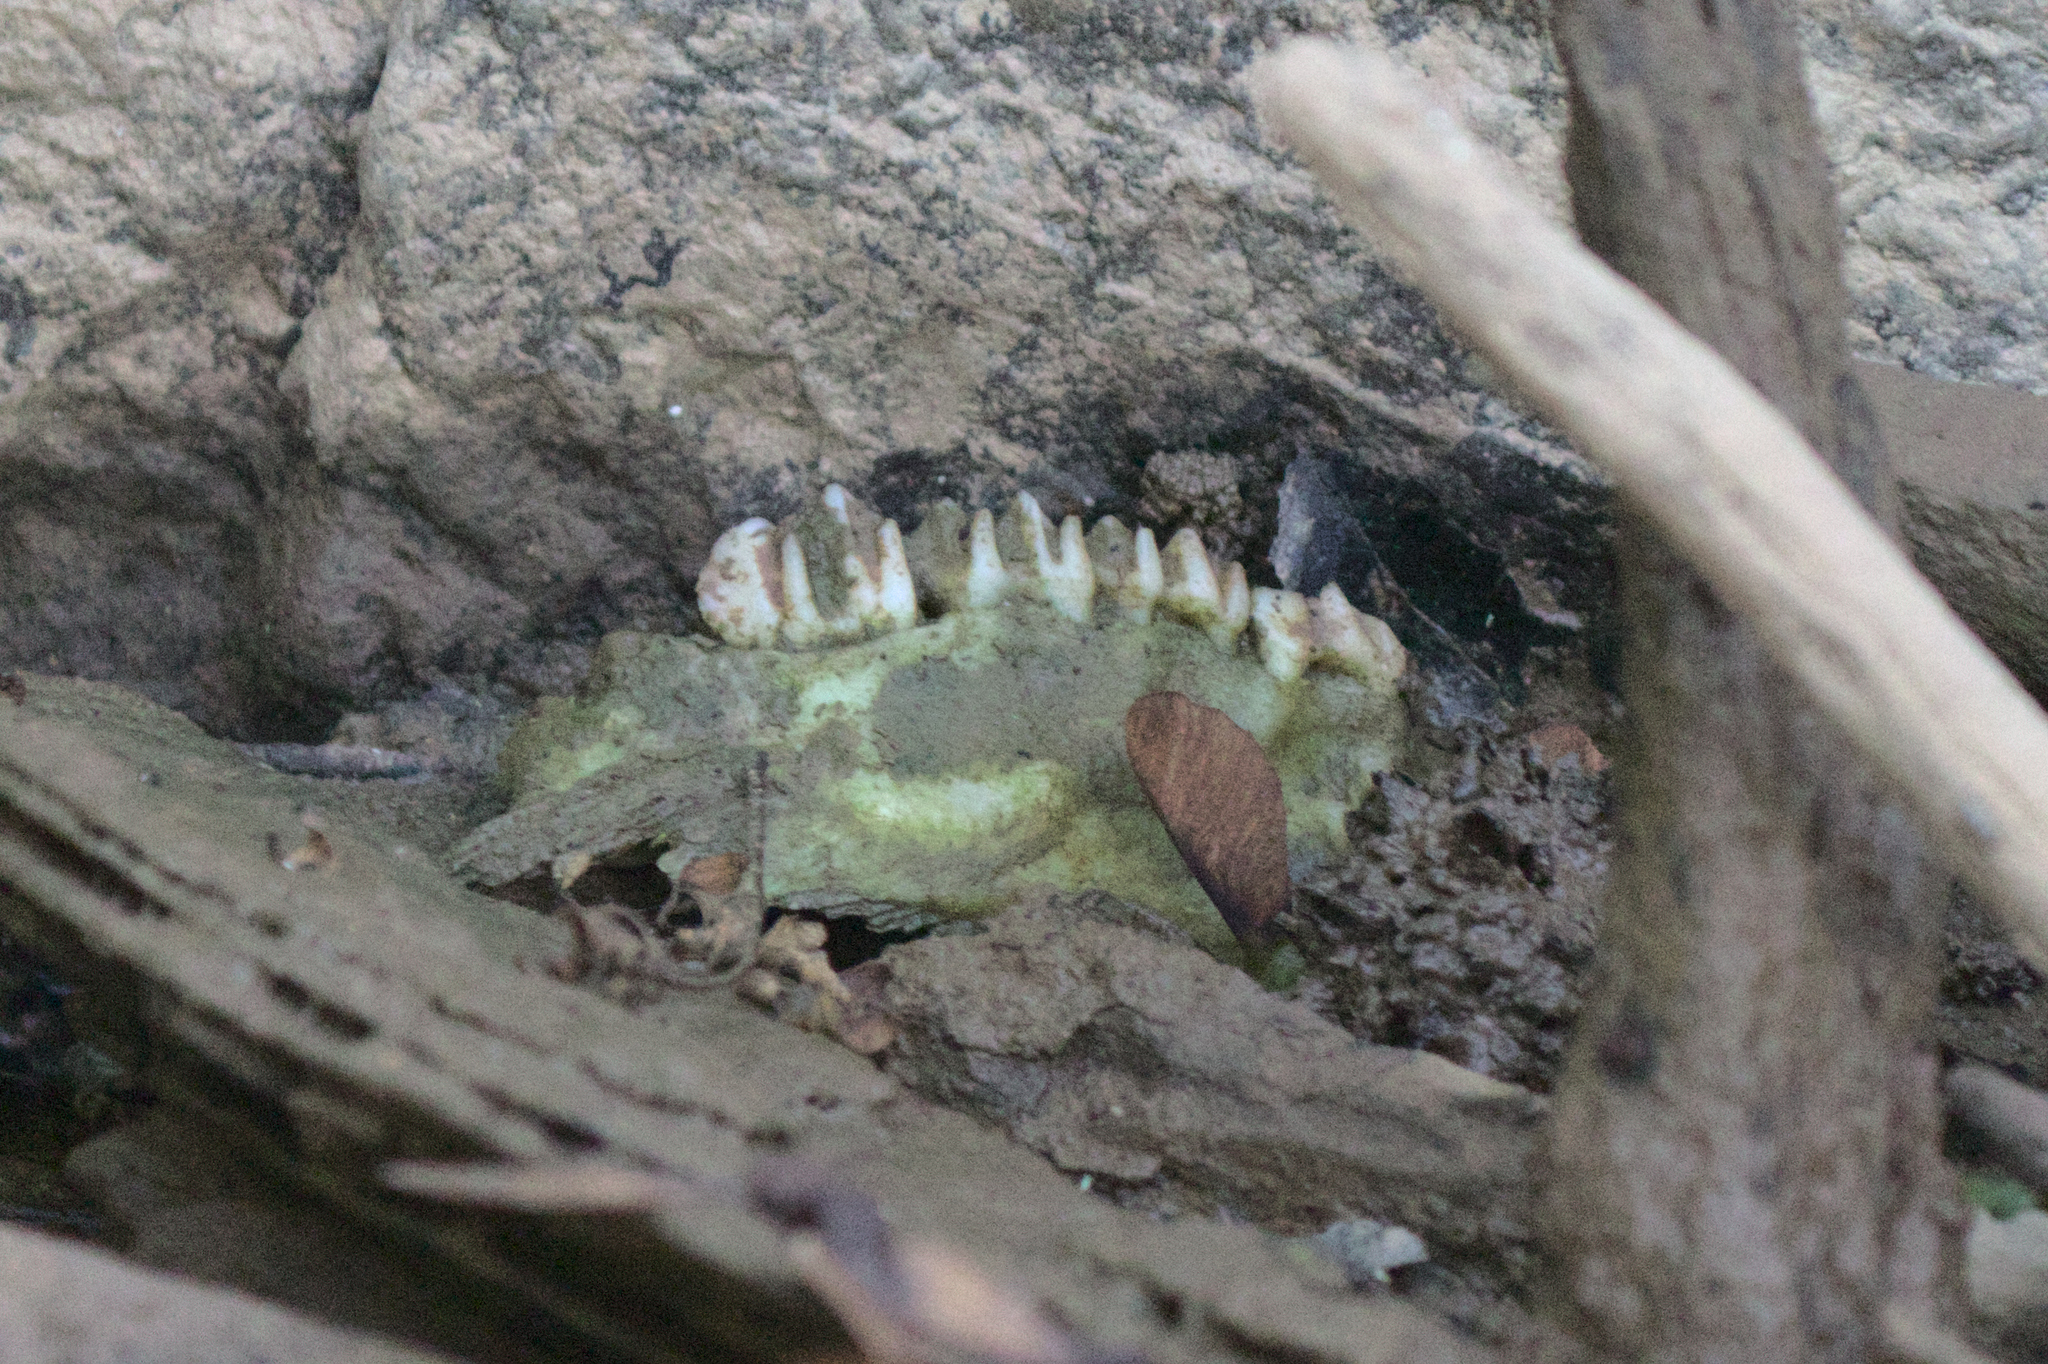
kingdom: Animalia
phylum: Chordata
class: Mammalia
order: Artiodactyla
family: Cervidae
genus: Odocoileus
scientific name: Odocoileus virginianus
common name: White-tailed deer
